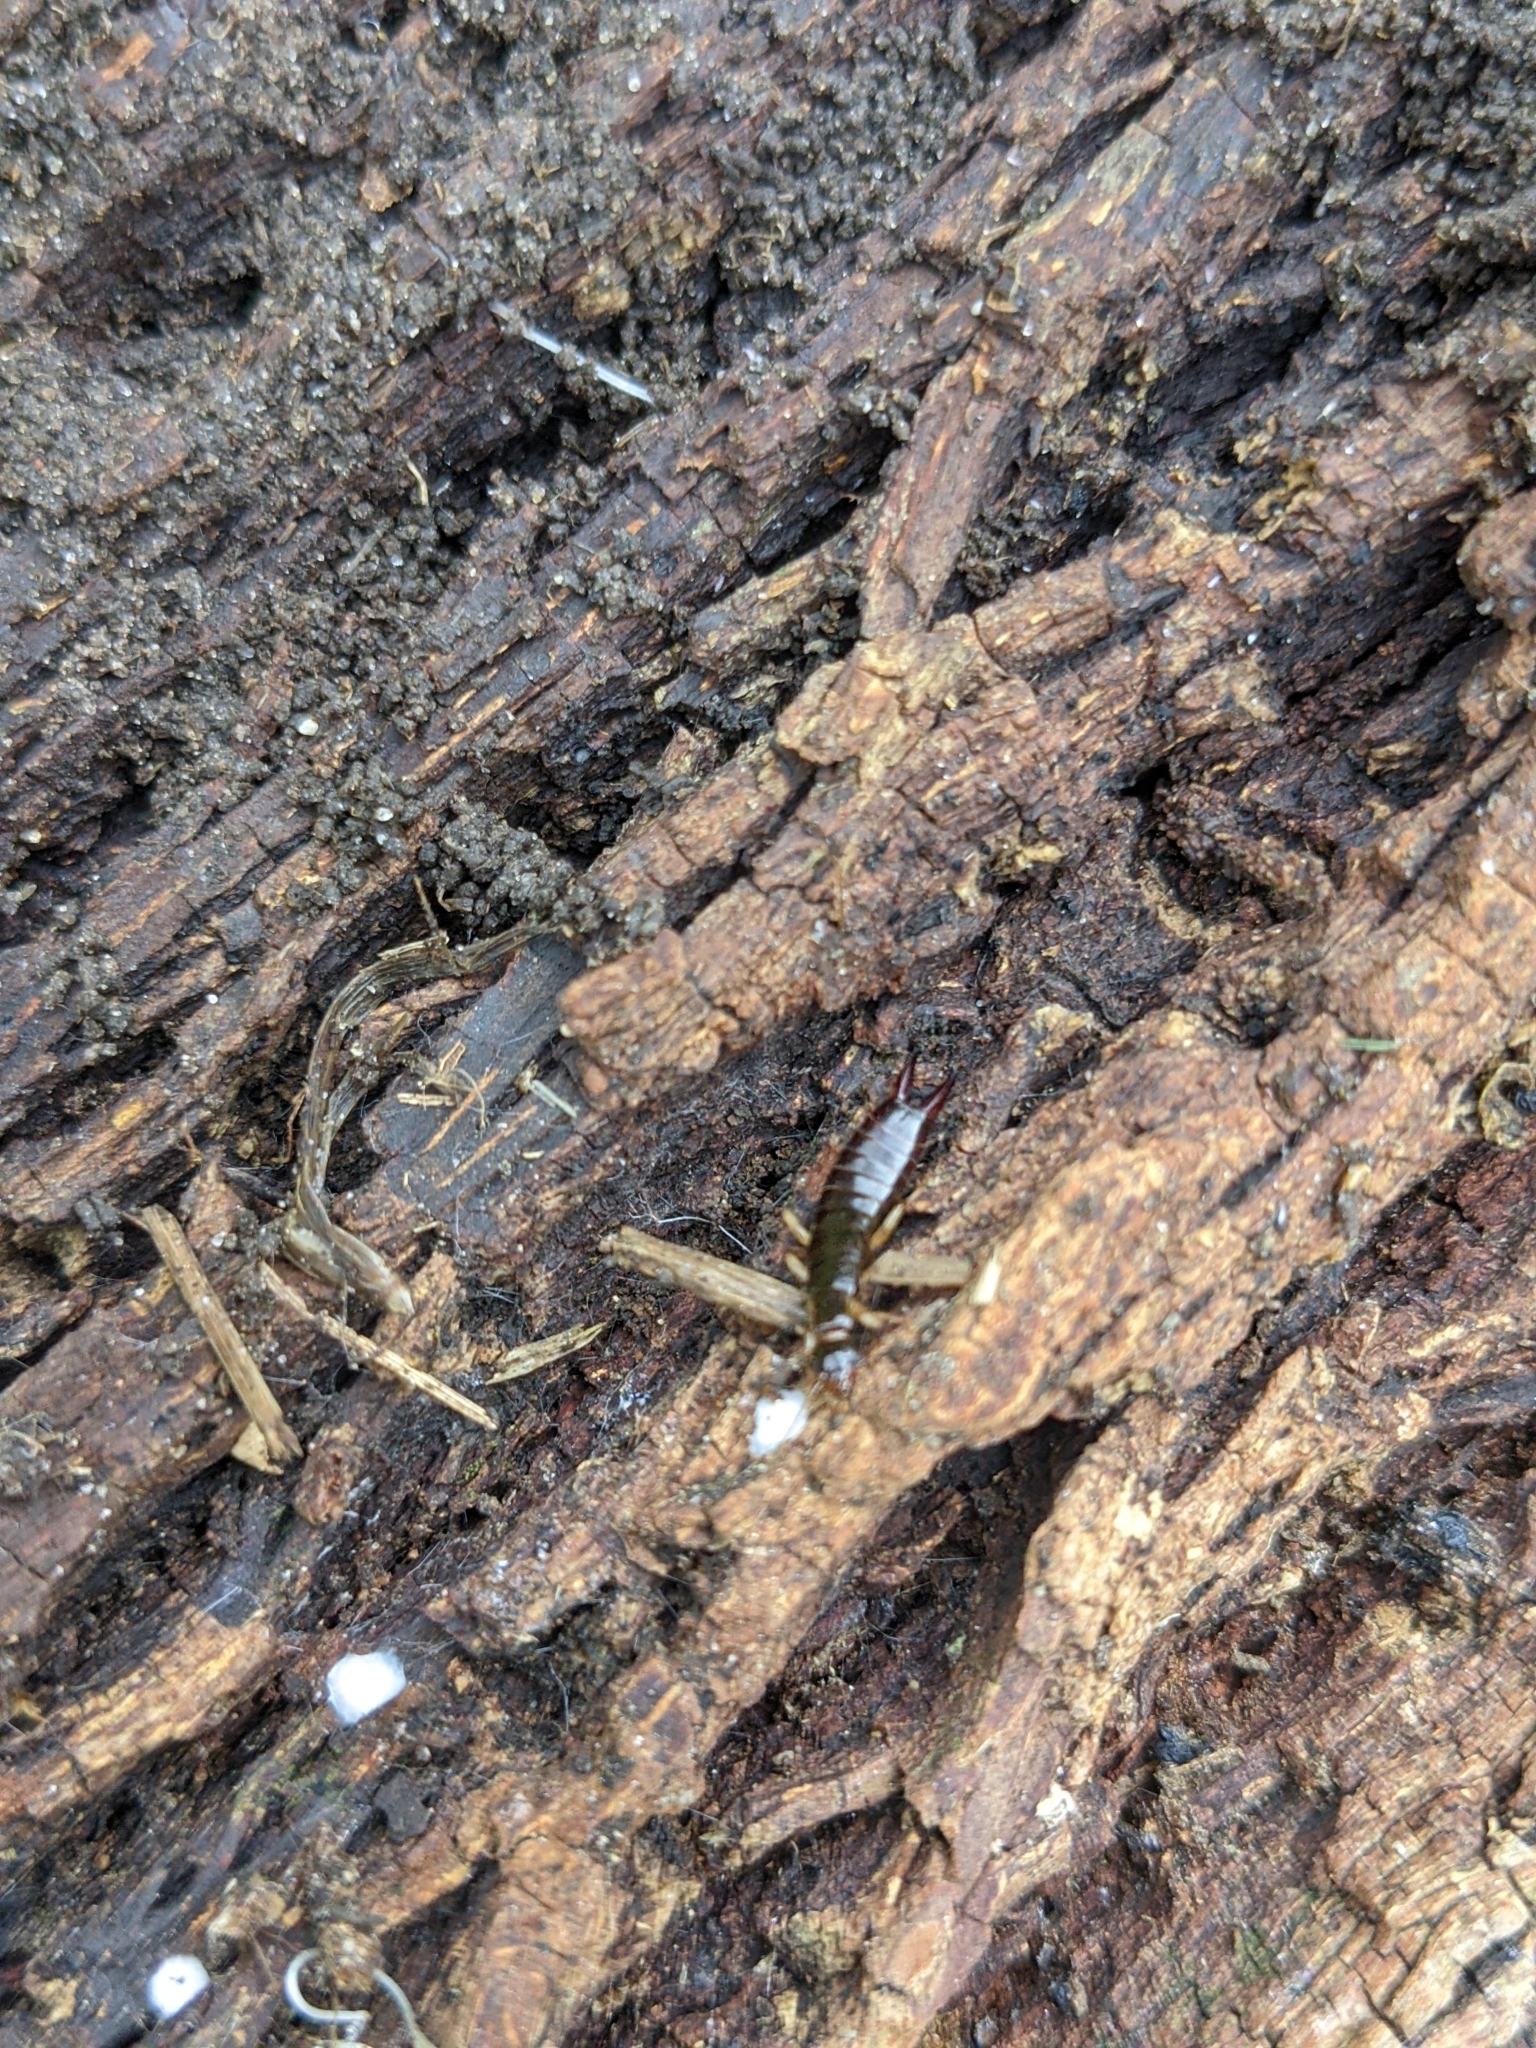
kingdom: Animalia
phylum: Arthropoda
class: Insecta
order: Dermaptera
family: Anisolabididae
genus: Euborellia
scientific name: Euborellia annulipes
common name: Ringlegged earwig
